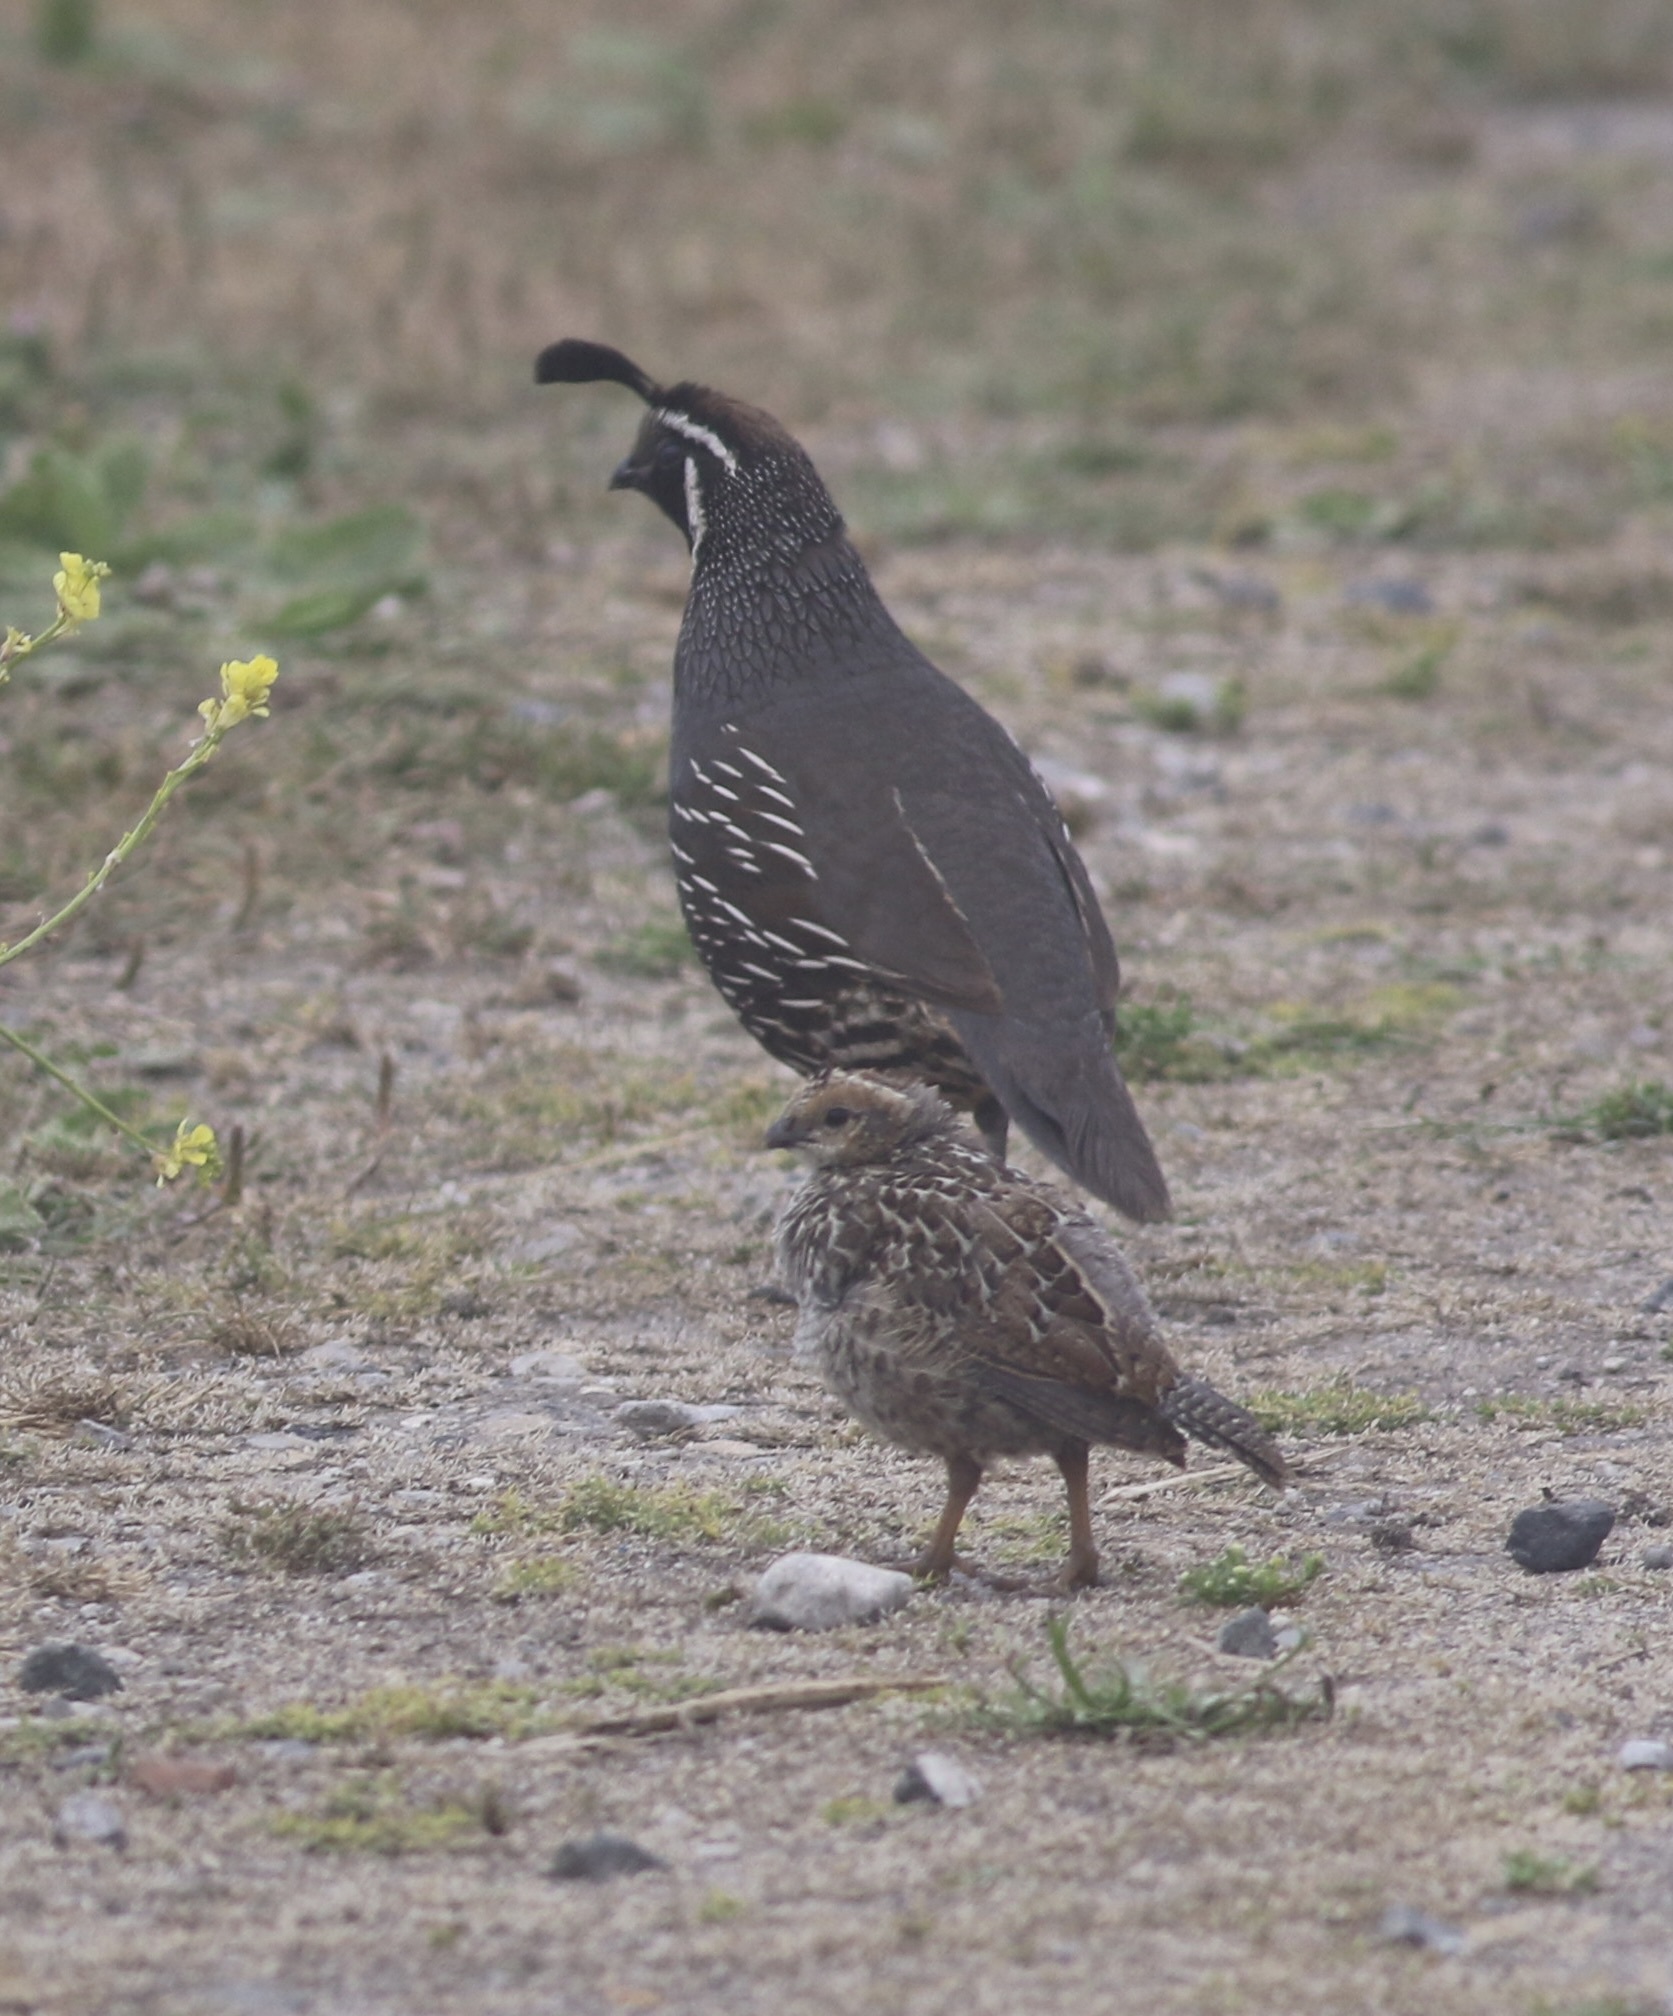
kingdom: Animalia
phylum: Chordata
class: Aves
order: Galliformes
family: Odontophoridae
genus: Callipepla
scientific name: Callipepla californica
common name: California quail
